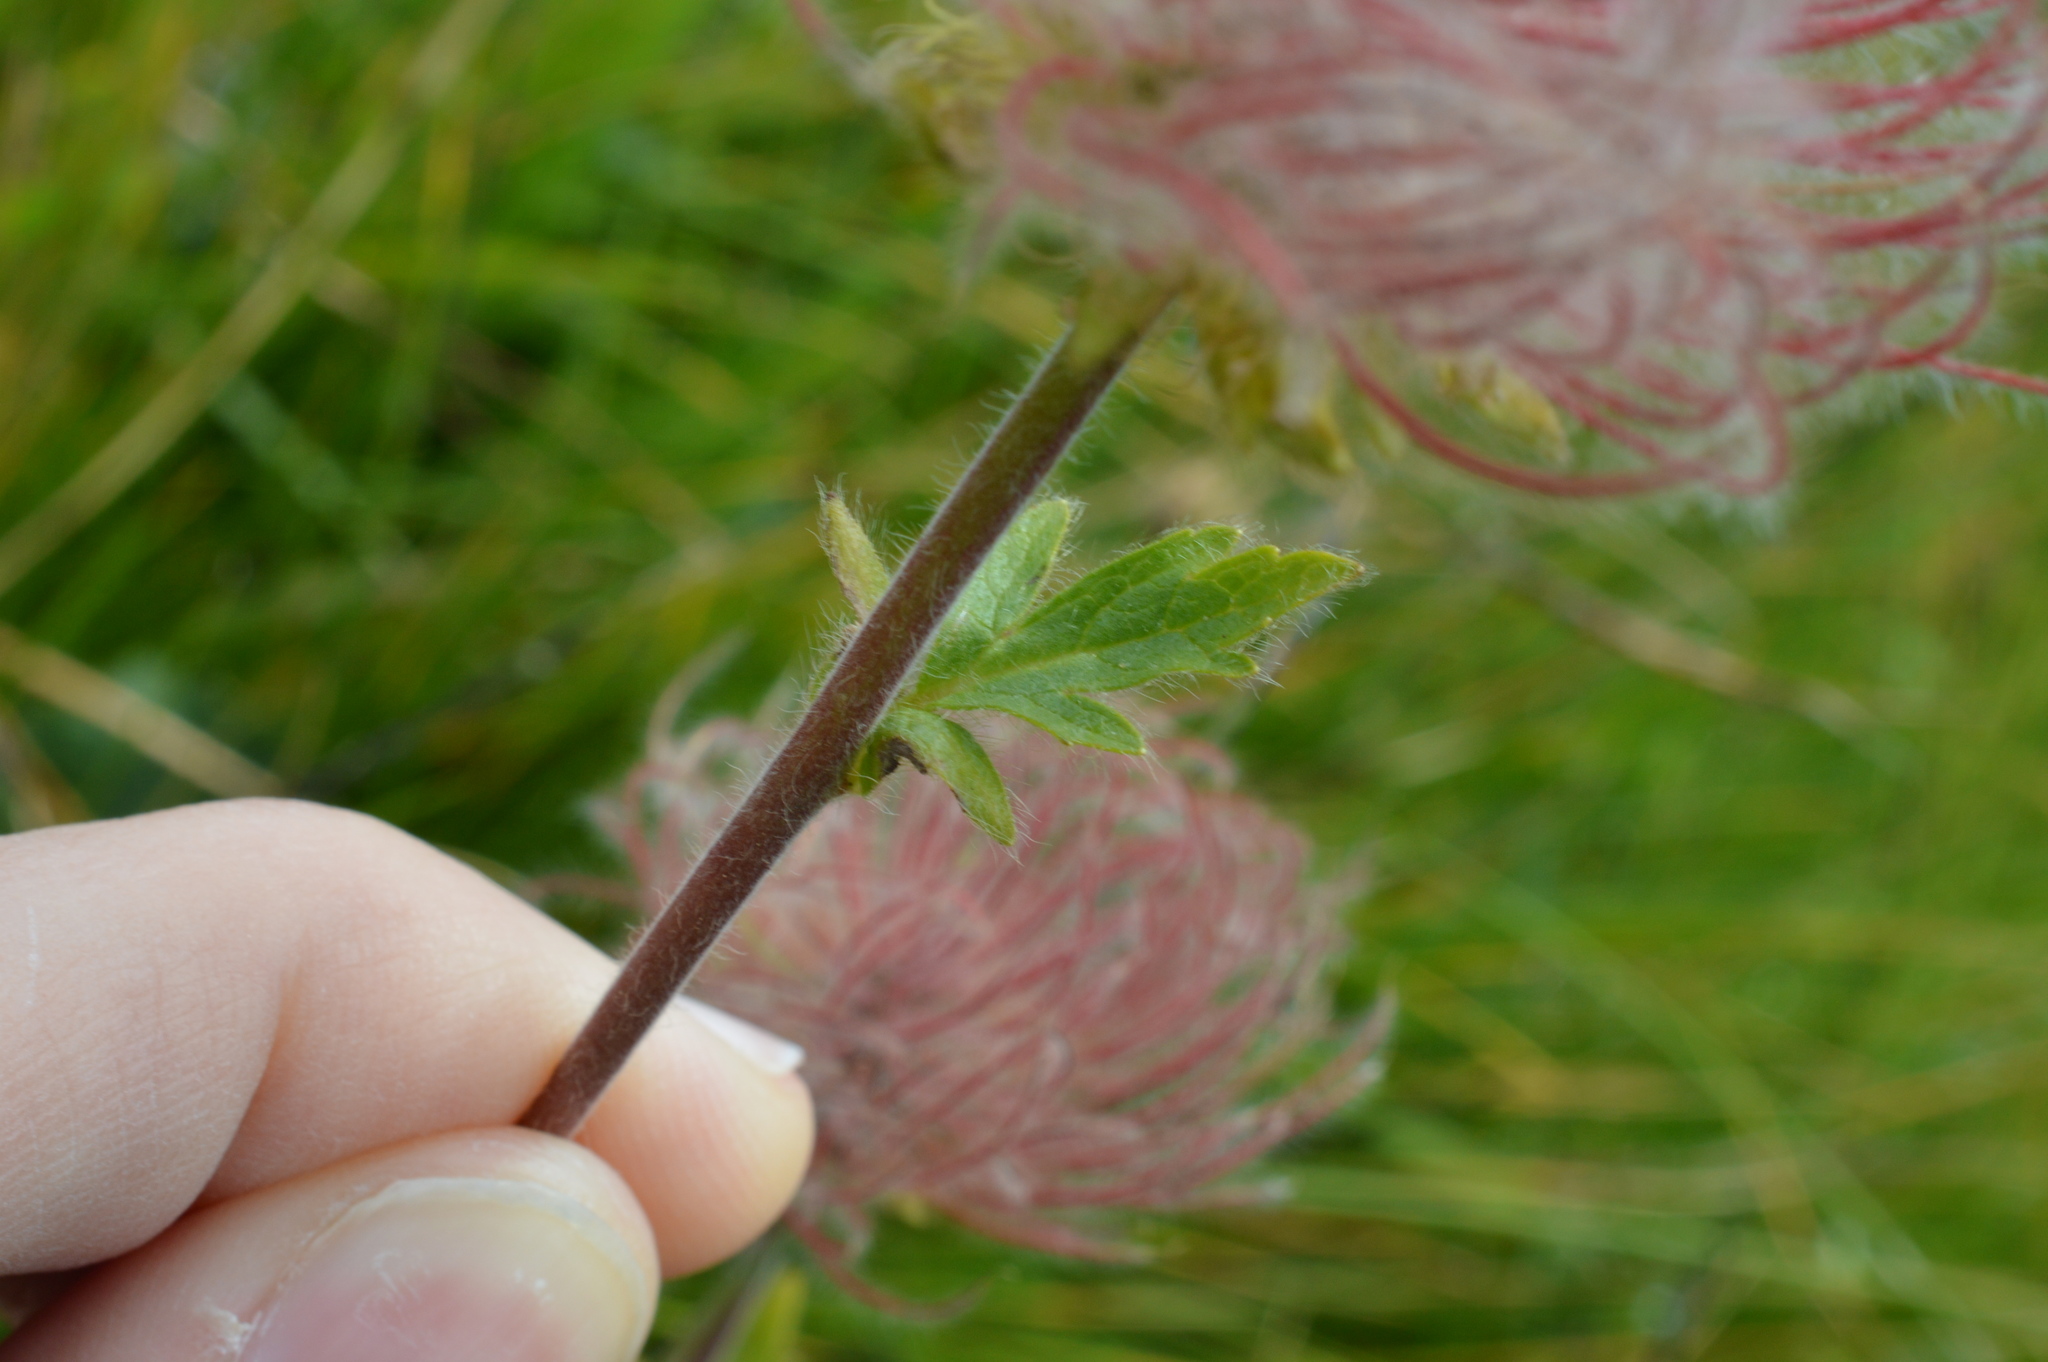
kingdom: Plantae
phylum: Tracheophyta
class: Magnoliopsida
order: Rosales
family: Rosaceae
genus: Geum
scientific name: Geum montanum
